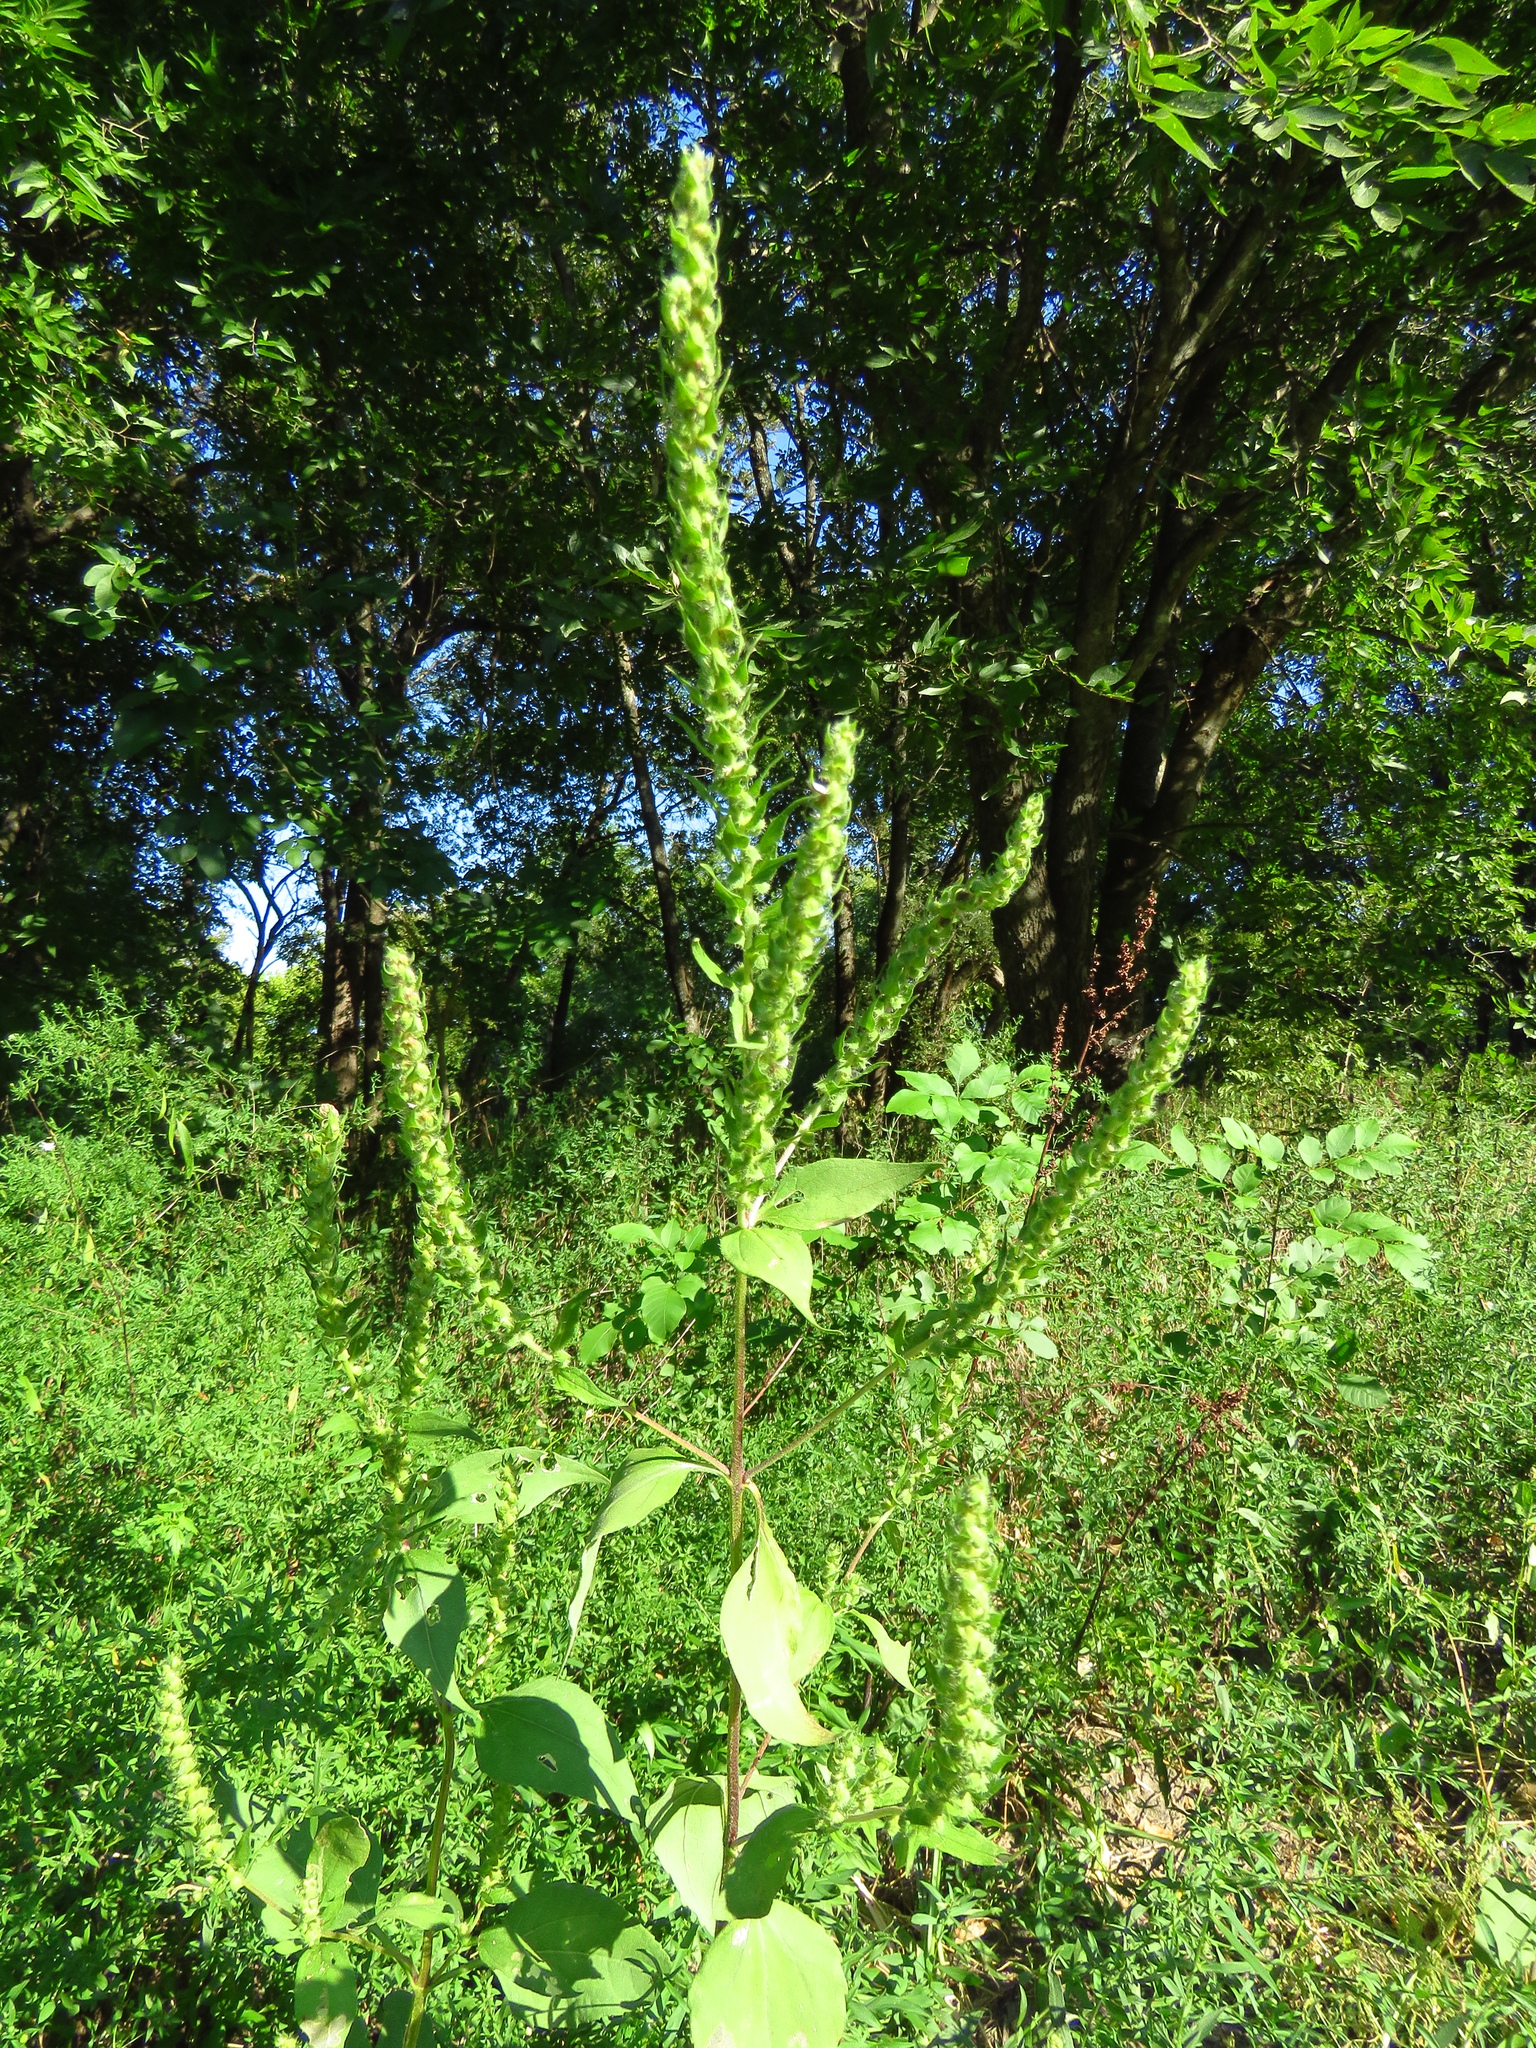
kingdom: Plantae
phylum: Tracheophyta
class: Magnoliopsida
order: Asterales
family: Asteraceae
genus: Iva
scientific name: Iva annua
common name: Marsh-elder
